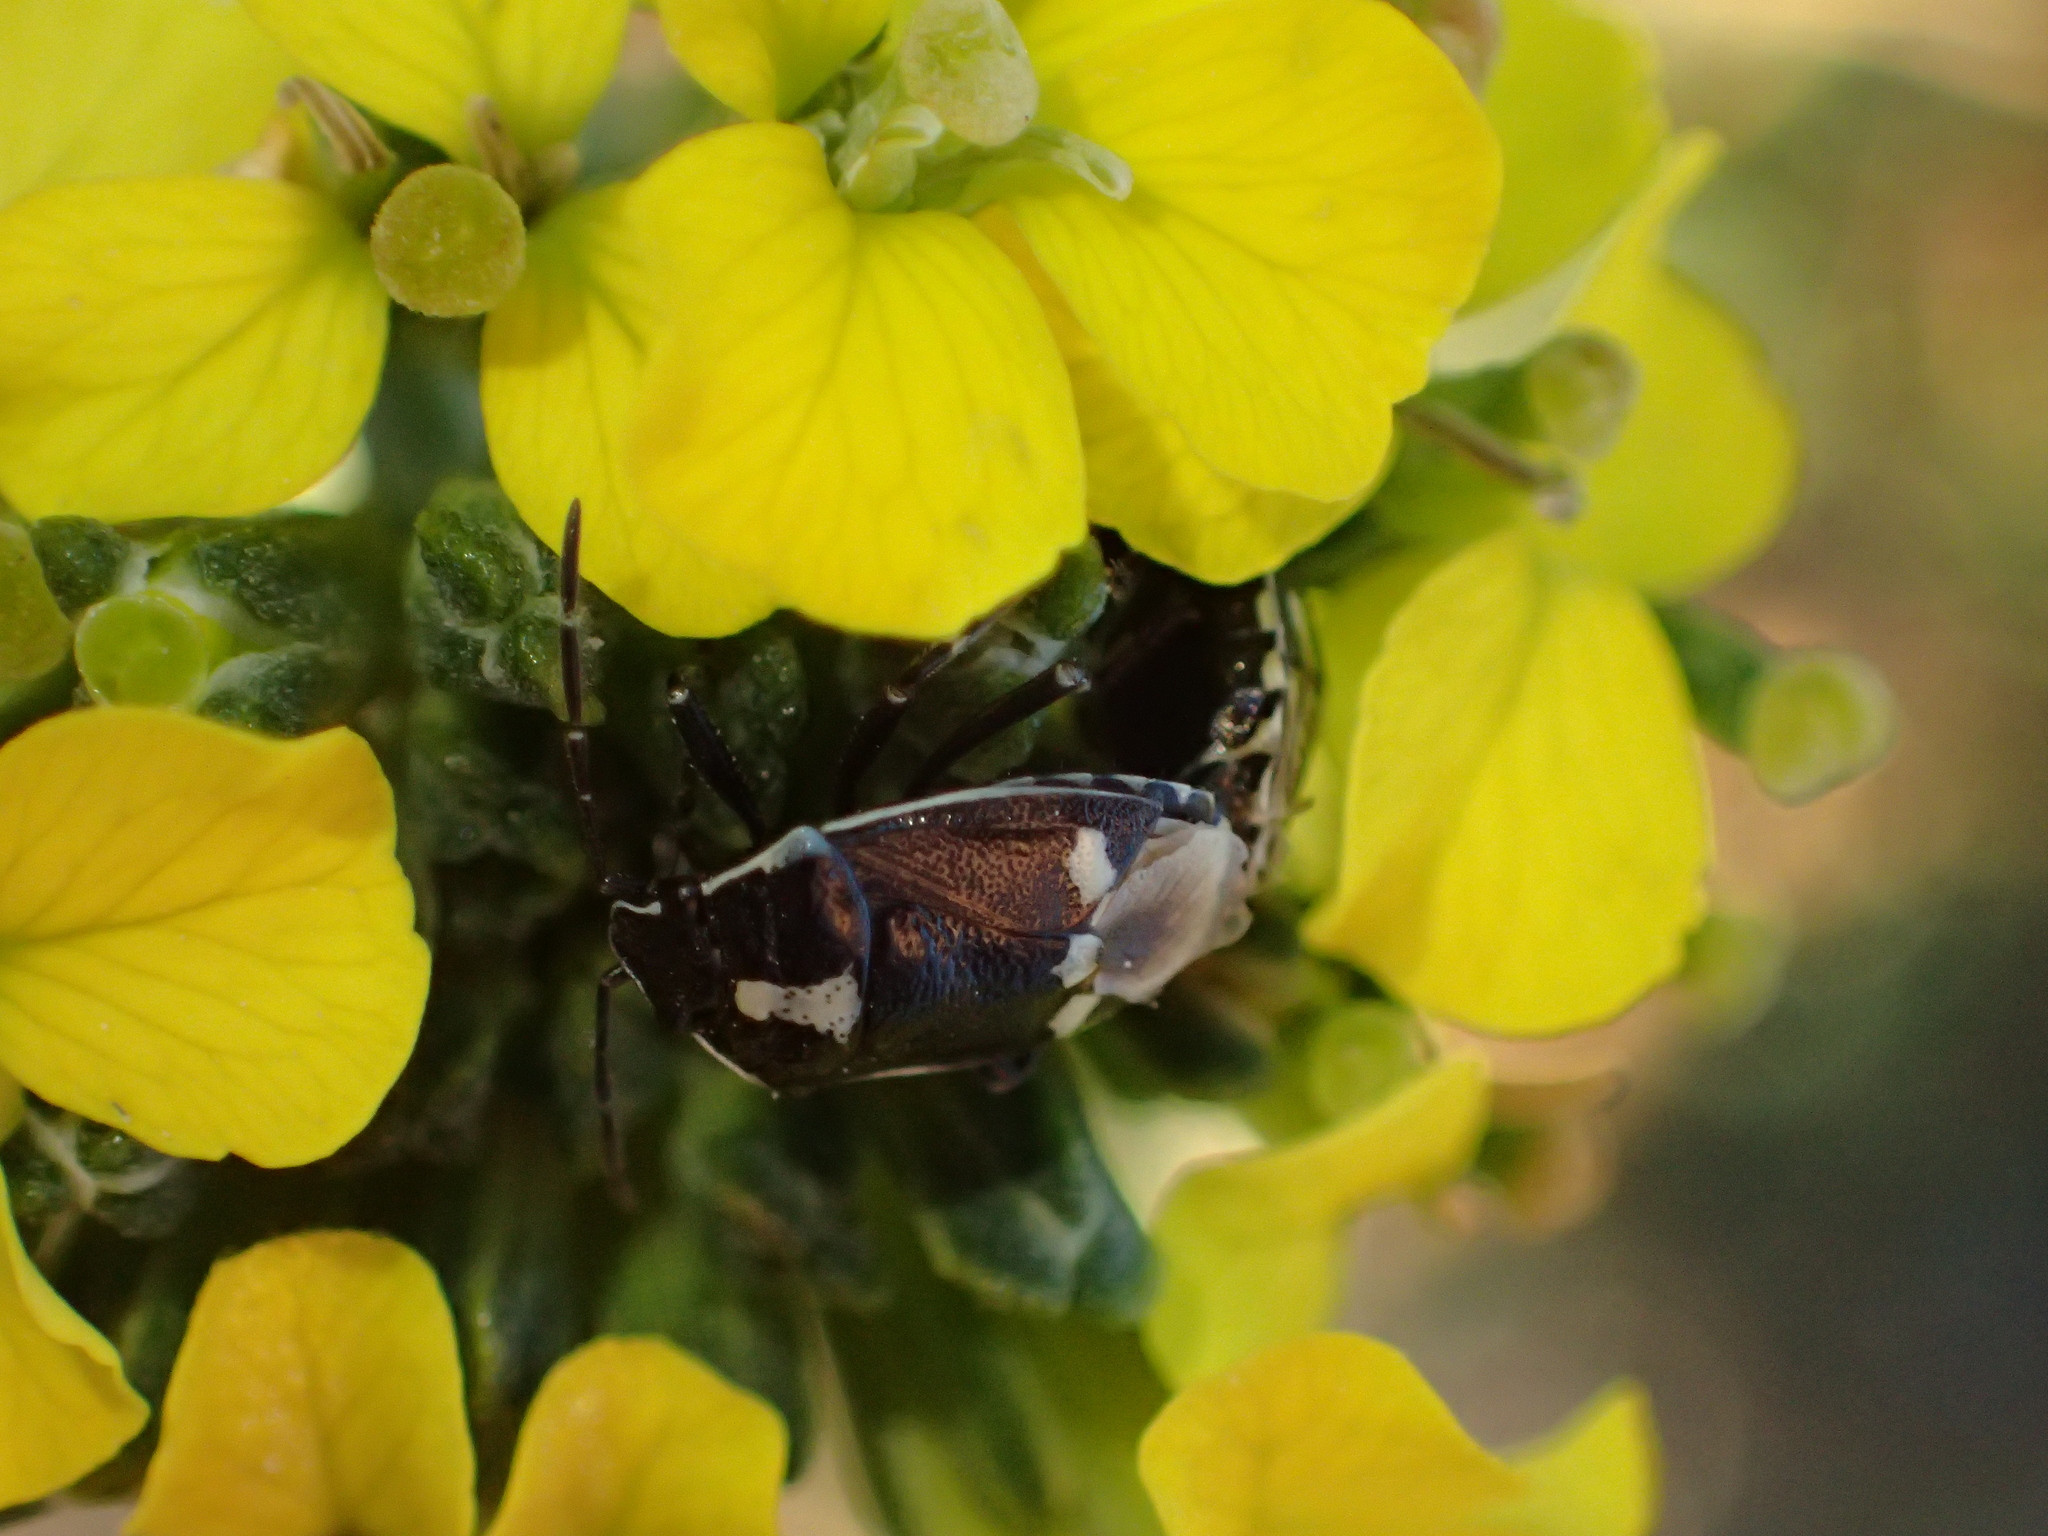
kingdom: Animalia
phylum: Arthropoda
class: Insecta
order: Hemiptera
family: Pentatomidae
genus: Eurydema
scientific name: Eurydema oleracea
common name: Cabbage bug
